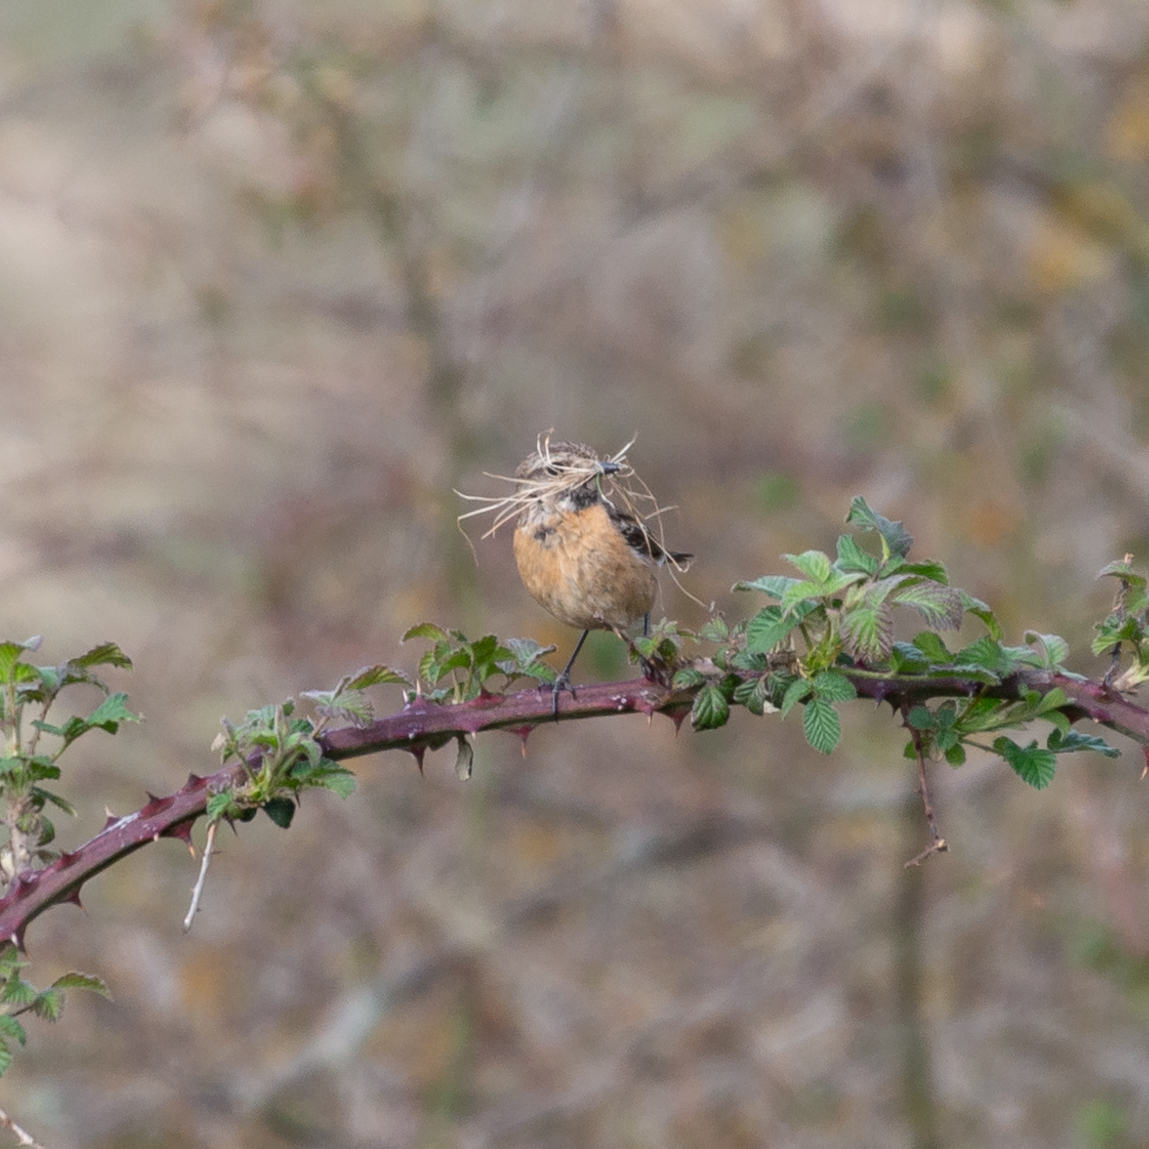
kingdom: Animalia
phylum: Chordata
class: Aves
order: Passeriformes
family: Muscicapidae
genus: Saxicola
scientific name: Saxicola rubicola
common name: European stonechat
